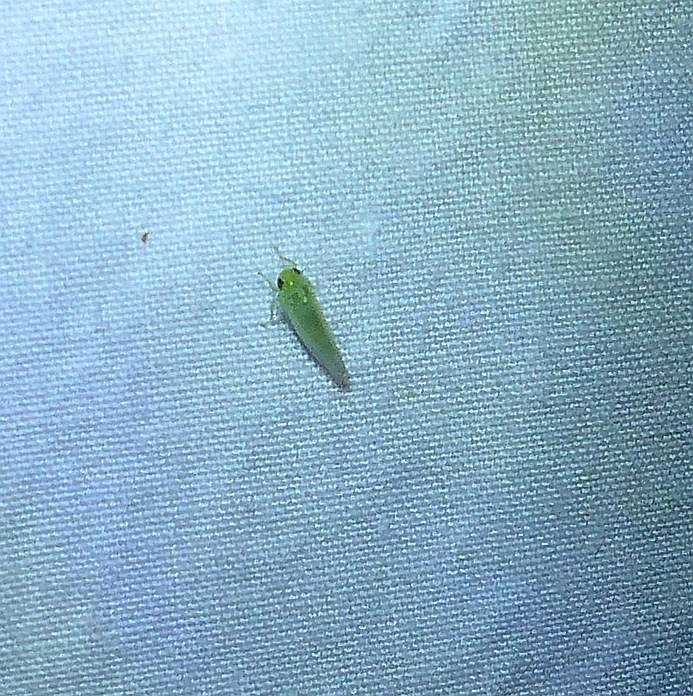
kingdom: Animalia
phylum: Arthropoda
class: Insecta
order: Hemiptera
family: Cicadellidae
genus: Empoasca
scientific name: Empoasca fabae
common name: Potato leafhopper
